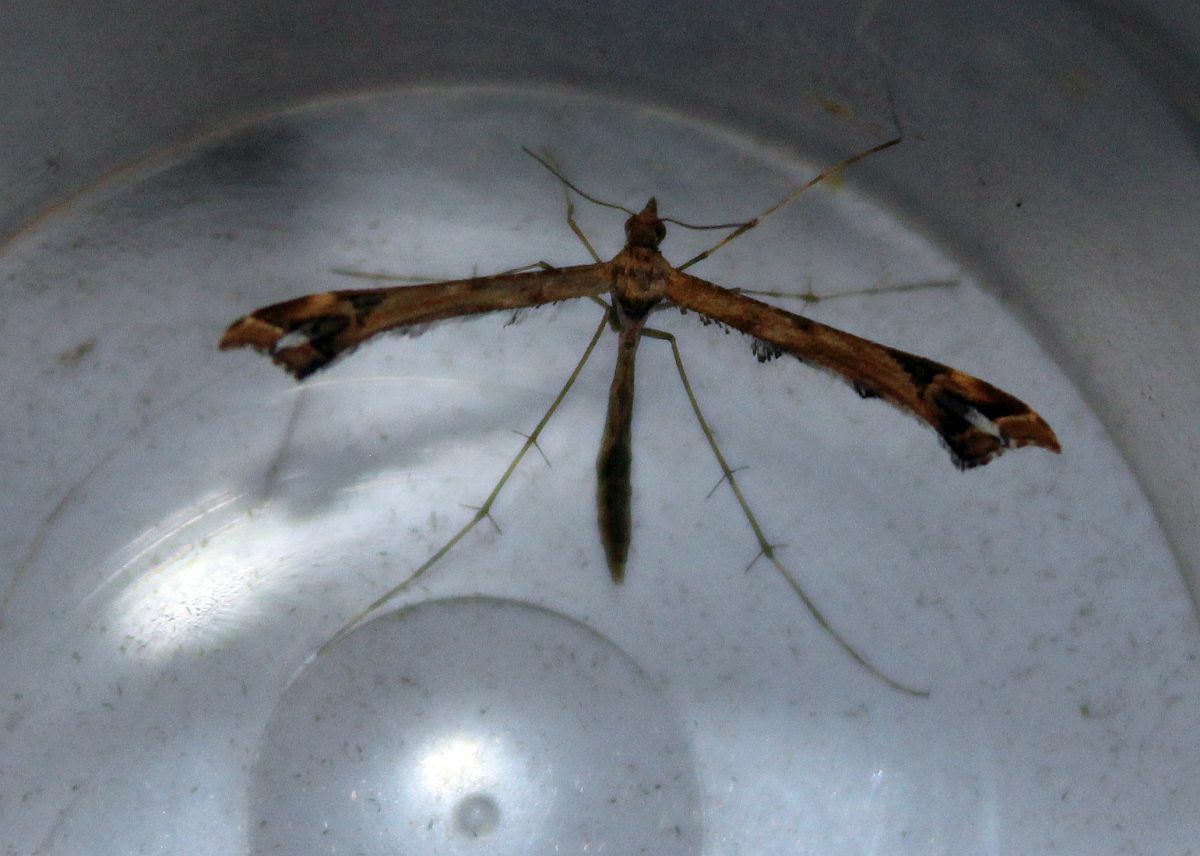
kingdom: Animalia
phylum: Arthropoda
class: Insecta
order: Lepidoptera
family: Pterophoridae
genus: Amblyptilia
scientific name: Amblyptilia acanthadactyla
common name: Beautiful plume
